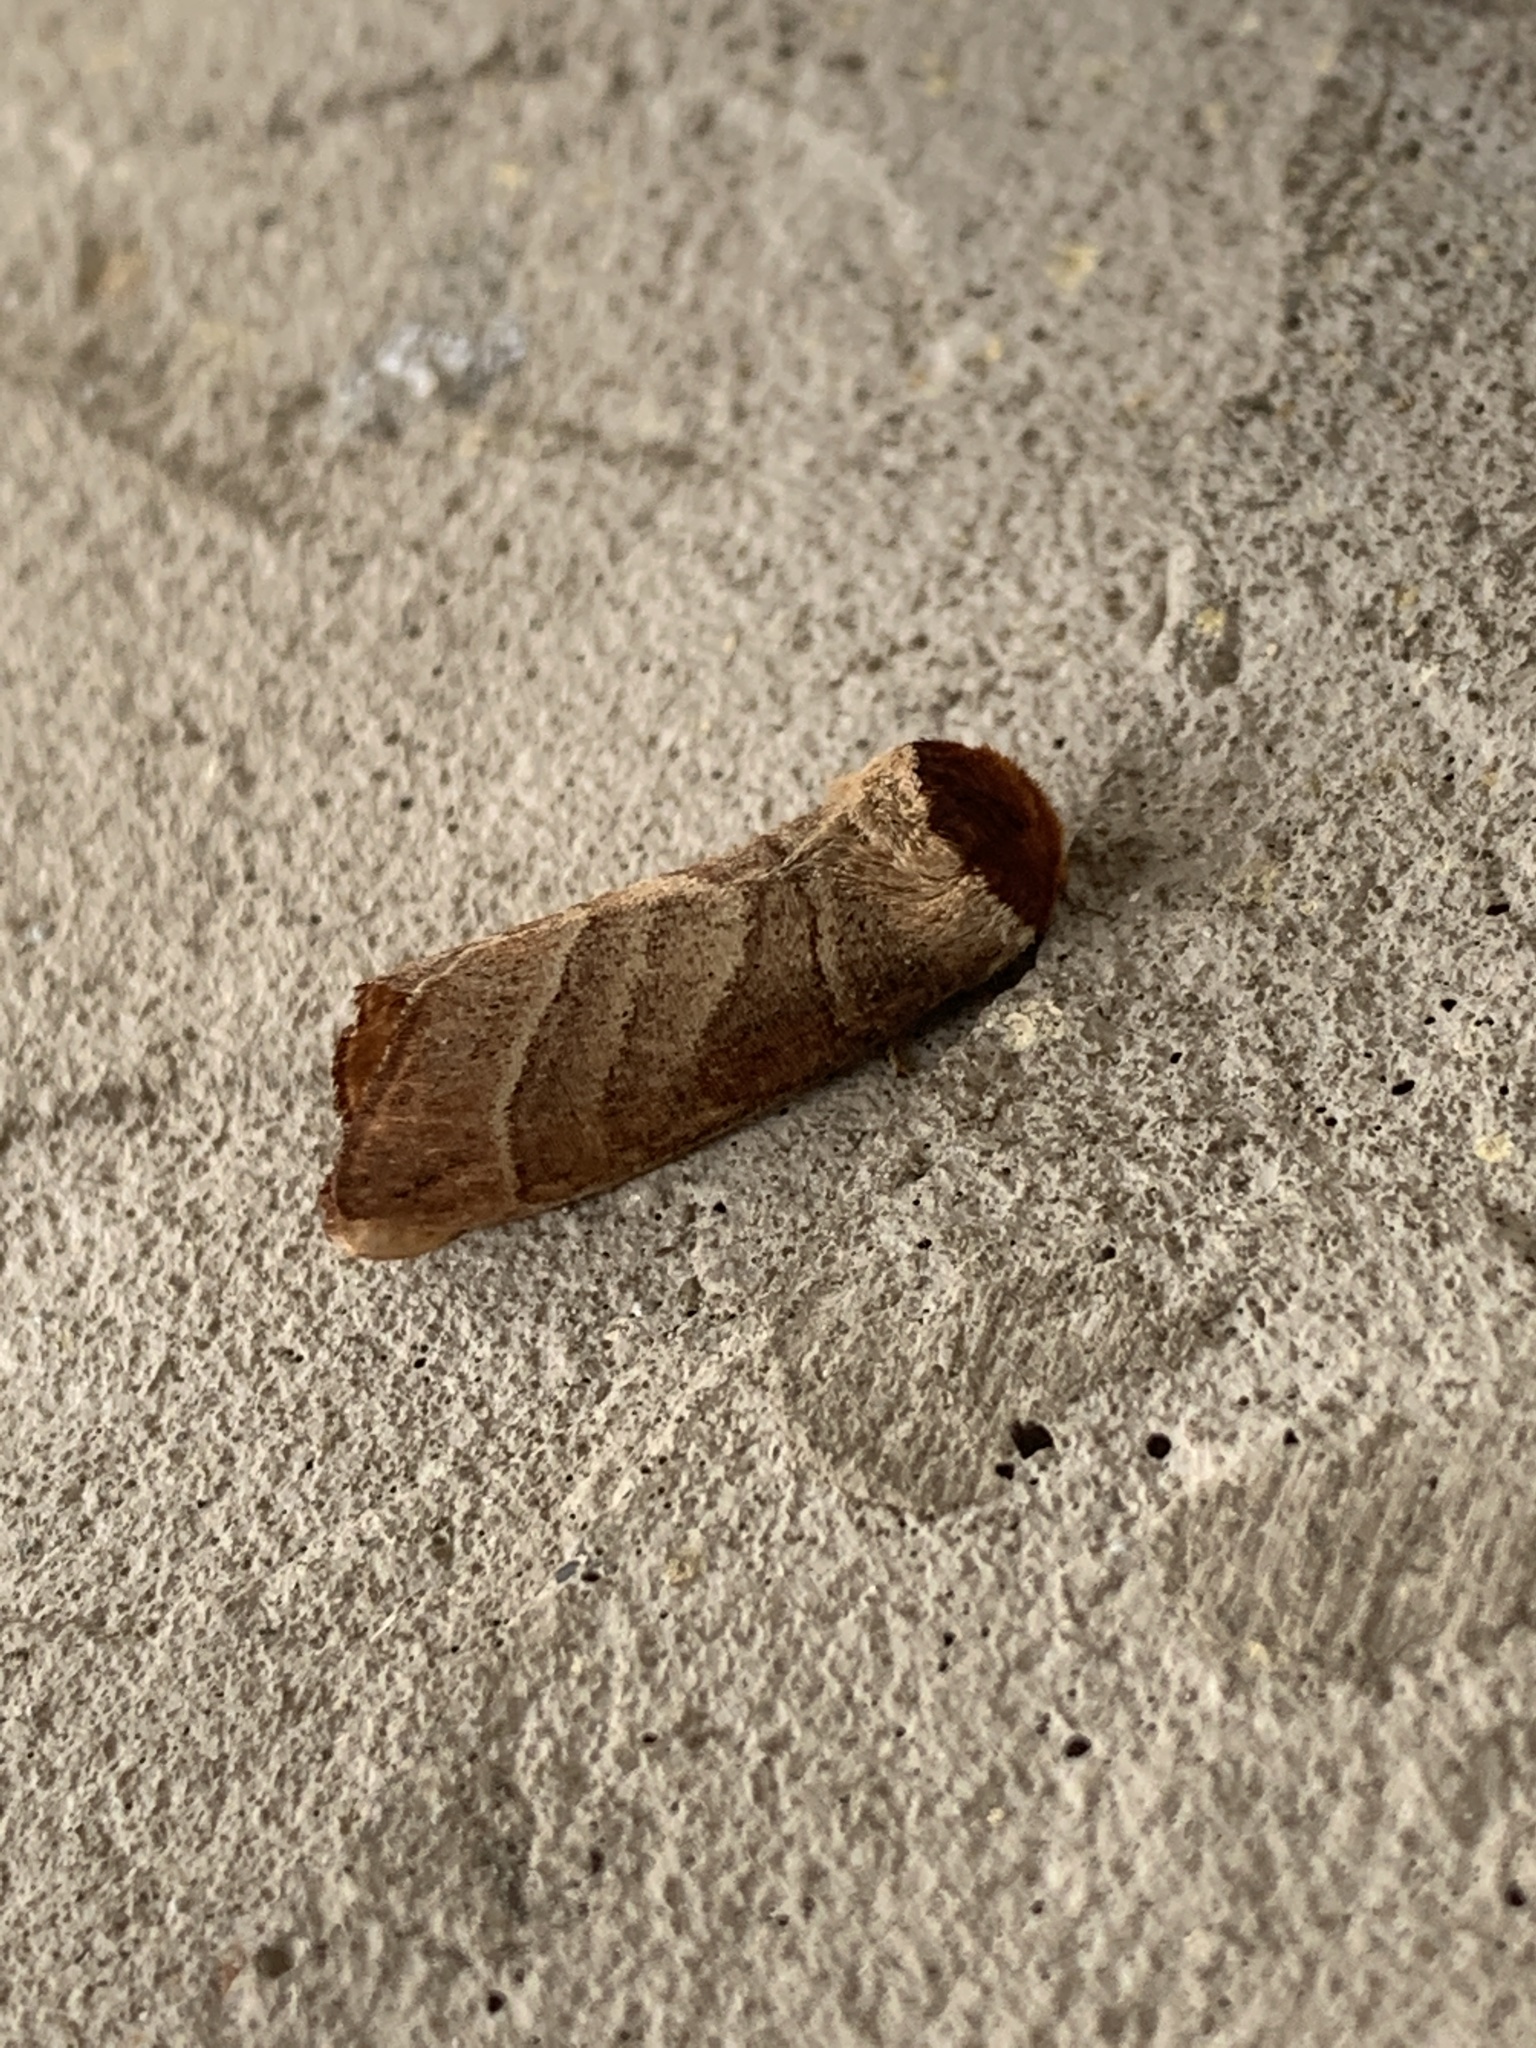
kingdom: Animalia
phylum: Arthropoda
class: Insecta
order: Lepidoptera
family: Notodontidae
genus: Datana
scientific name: Datana integerrima
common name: Walnut caterpillar
